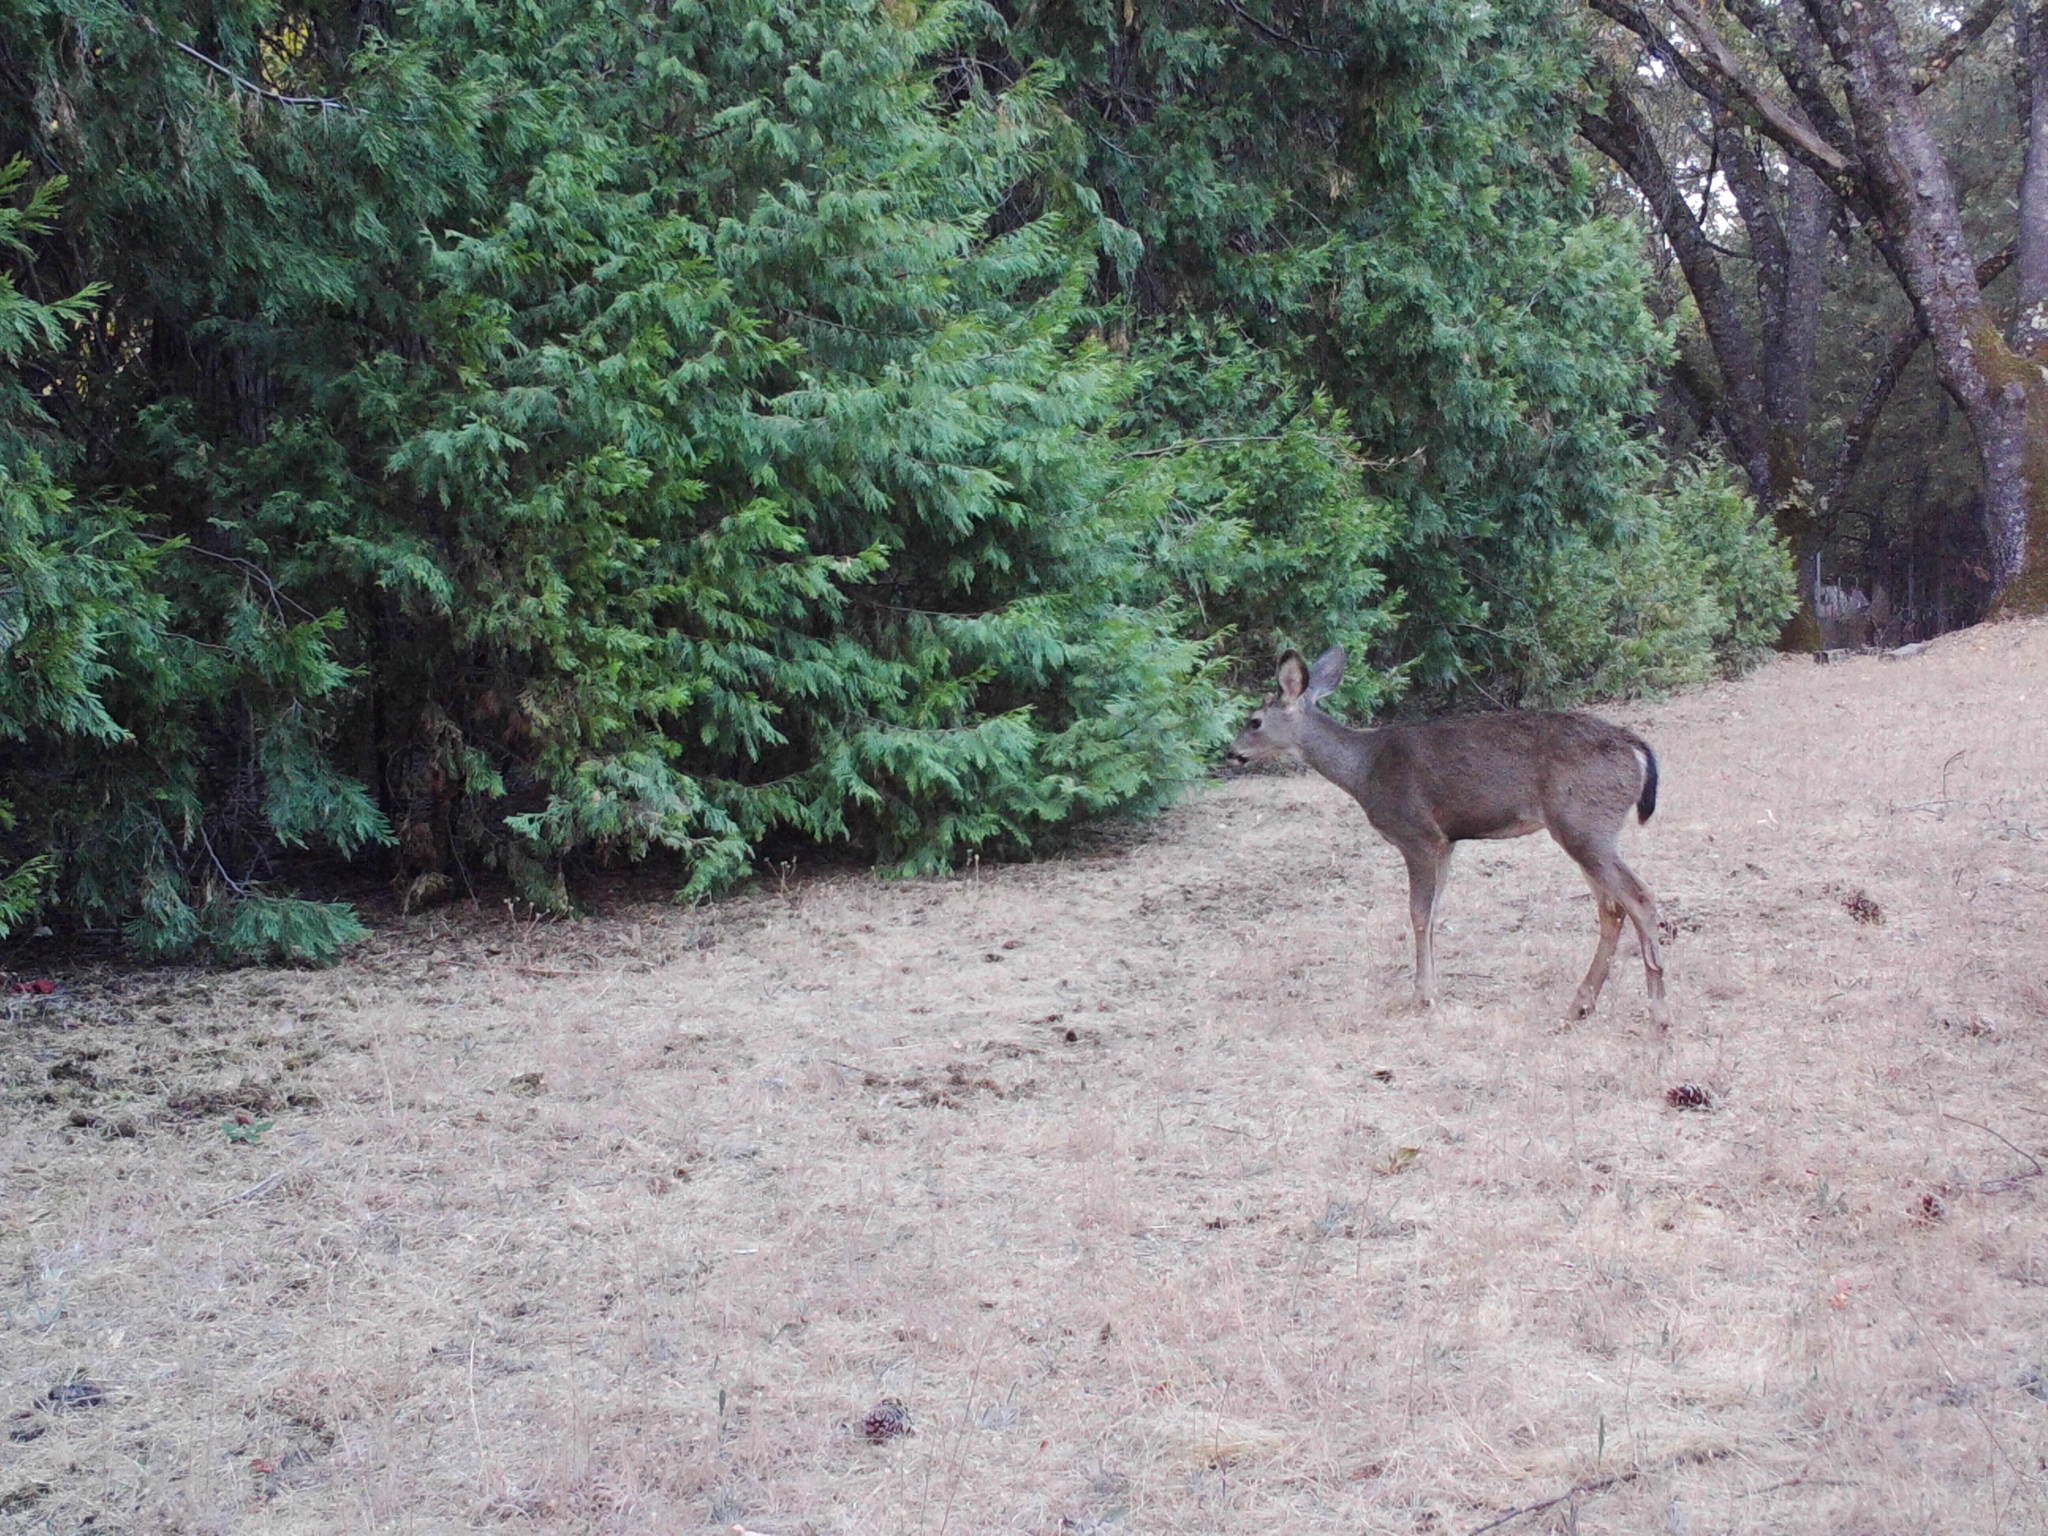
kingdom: Animalia
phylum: Chordata
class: Mammalia
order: Artiodactyla
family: Cervidae
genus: Odocoileus
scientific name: Odocoileus hemionus
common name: Mule deer
